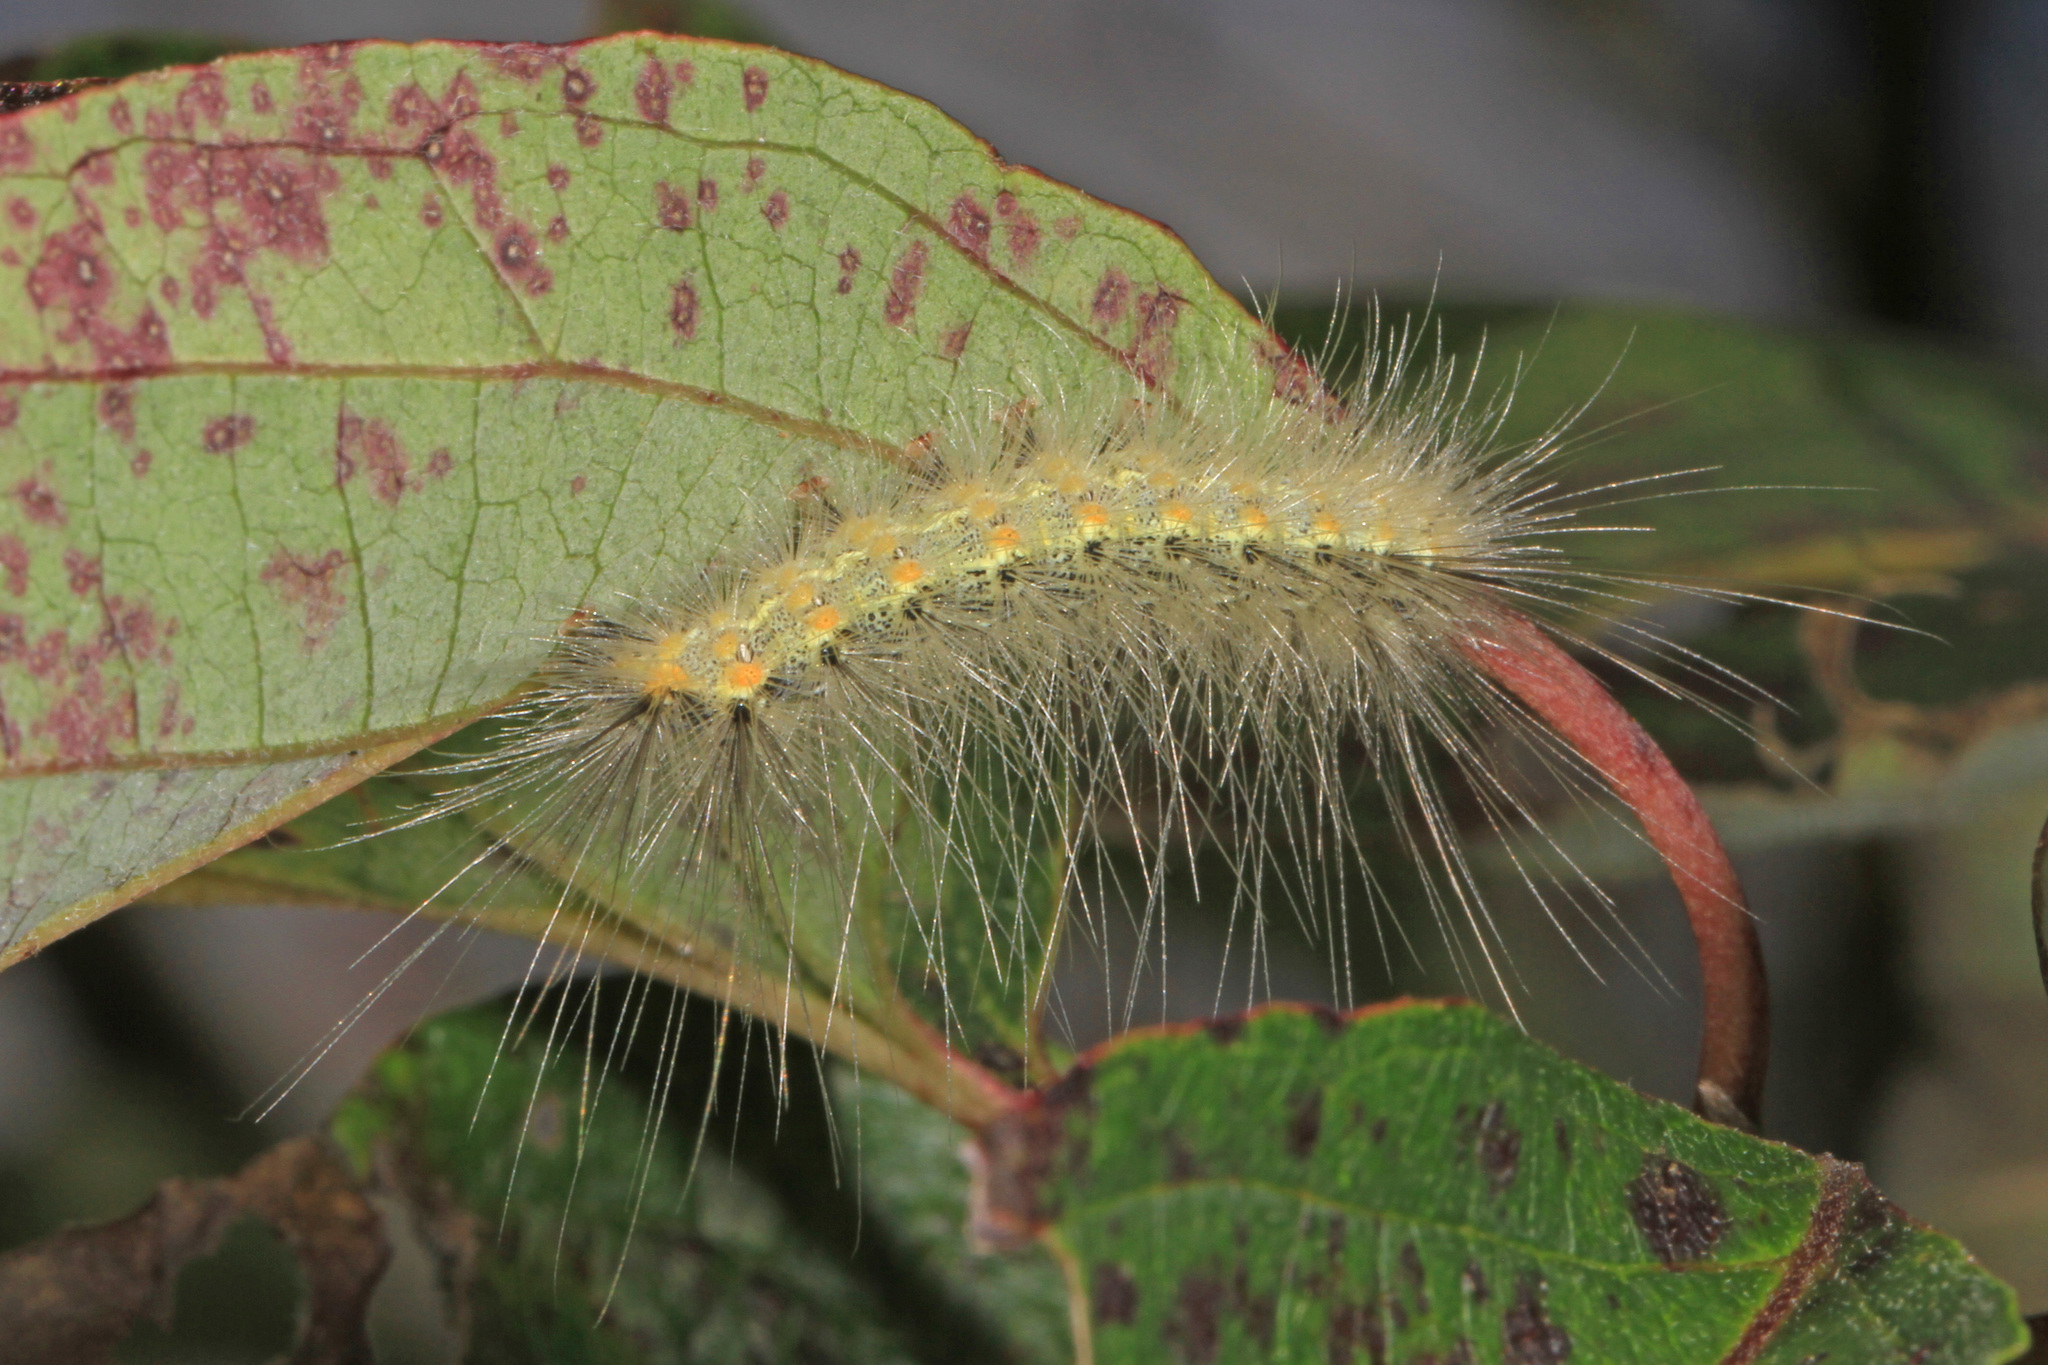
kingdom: Animalia
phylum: Arthropoda
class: Insecta
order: Lepidoptera
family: Erebidae
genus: Hyphantria
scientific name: Hyphantria cunea
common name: American white moth
